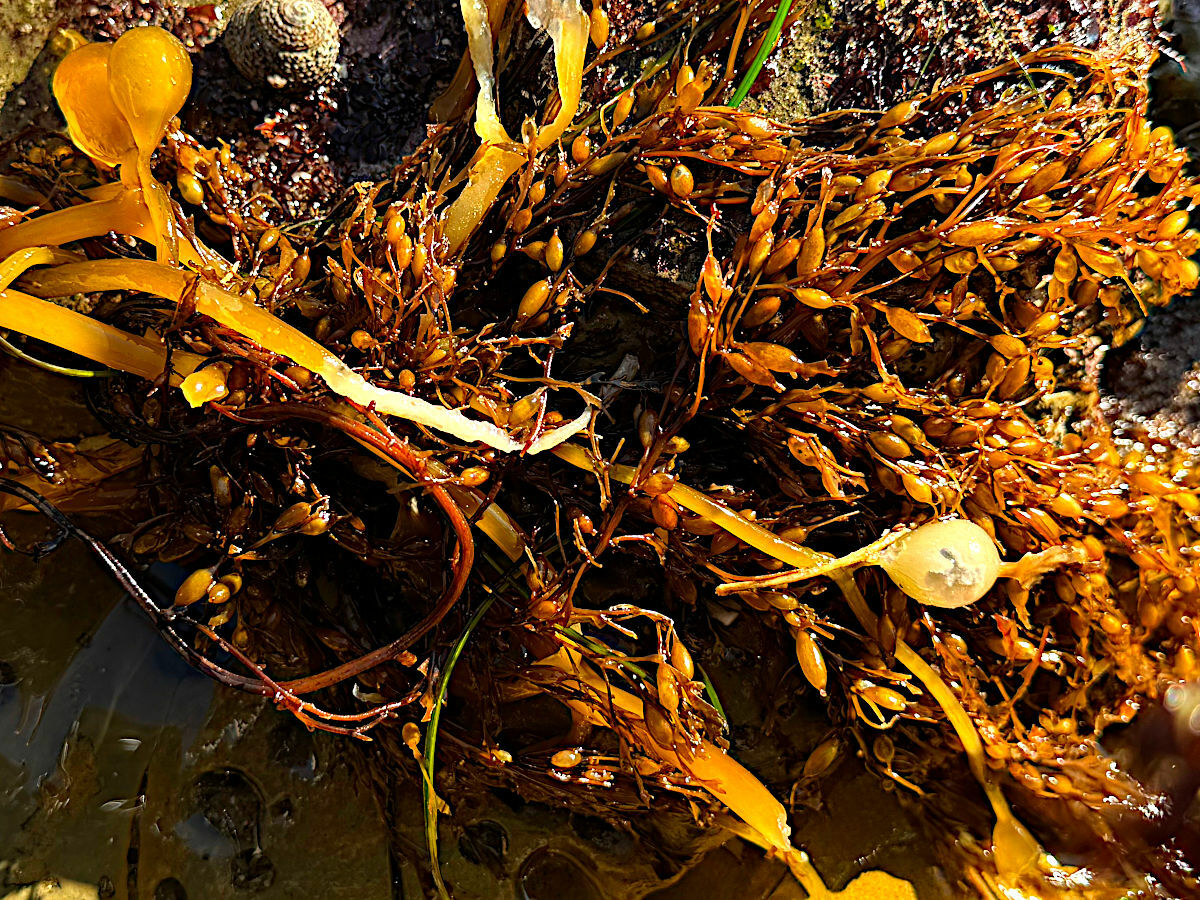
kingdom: Chromista
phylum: Ochrophyta
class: Phaeophyceae
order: Laminariales
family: Laminariaceae
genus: Macrocystis
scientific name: Macrocystis pyrifera
